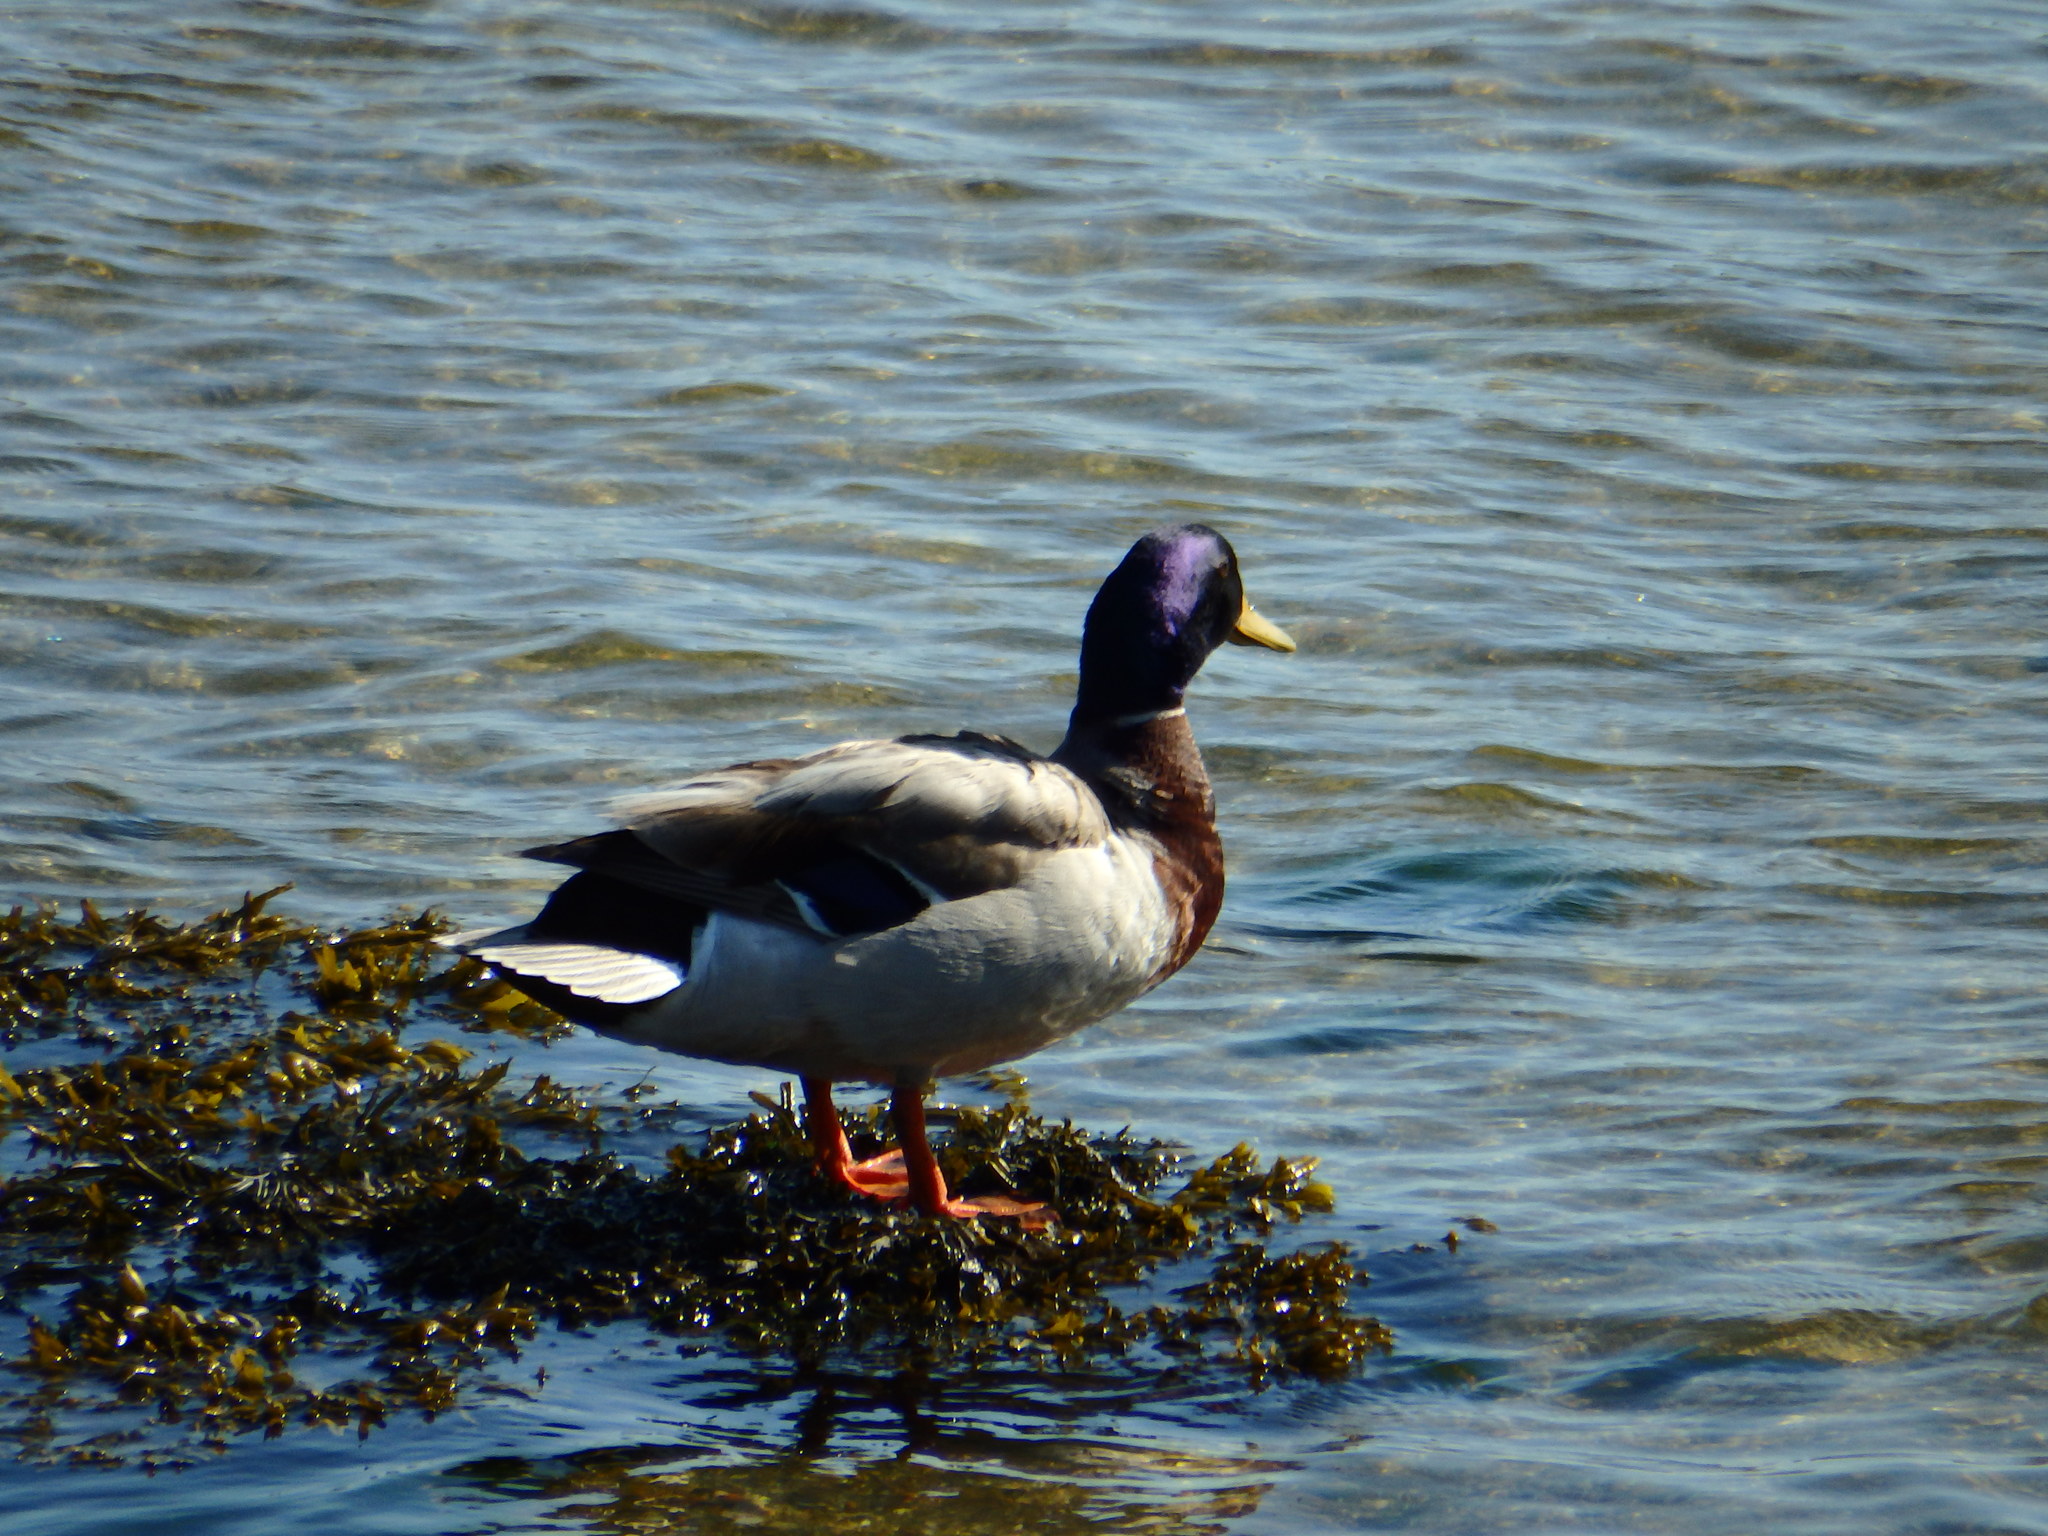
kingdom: Animalia
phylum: Chordata
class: Aves
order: Anseriformes
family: Anatidae
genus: Anas
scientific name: Anas platyrhynchos
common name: Mallard
